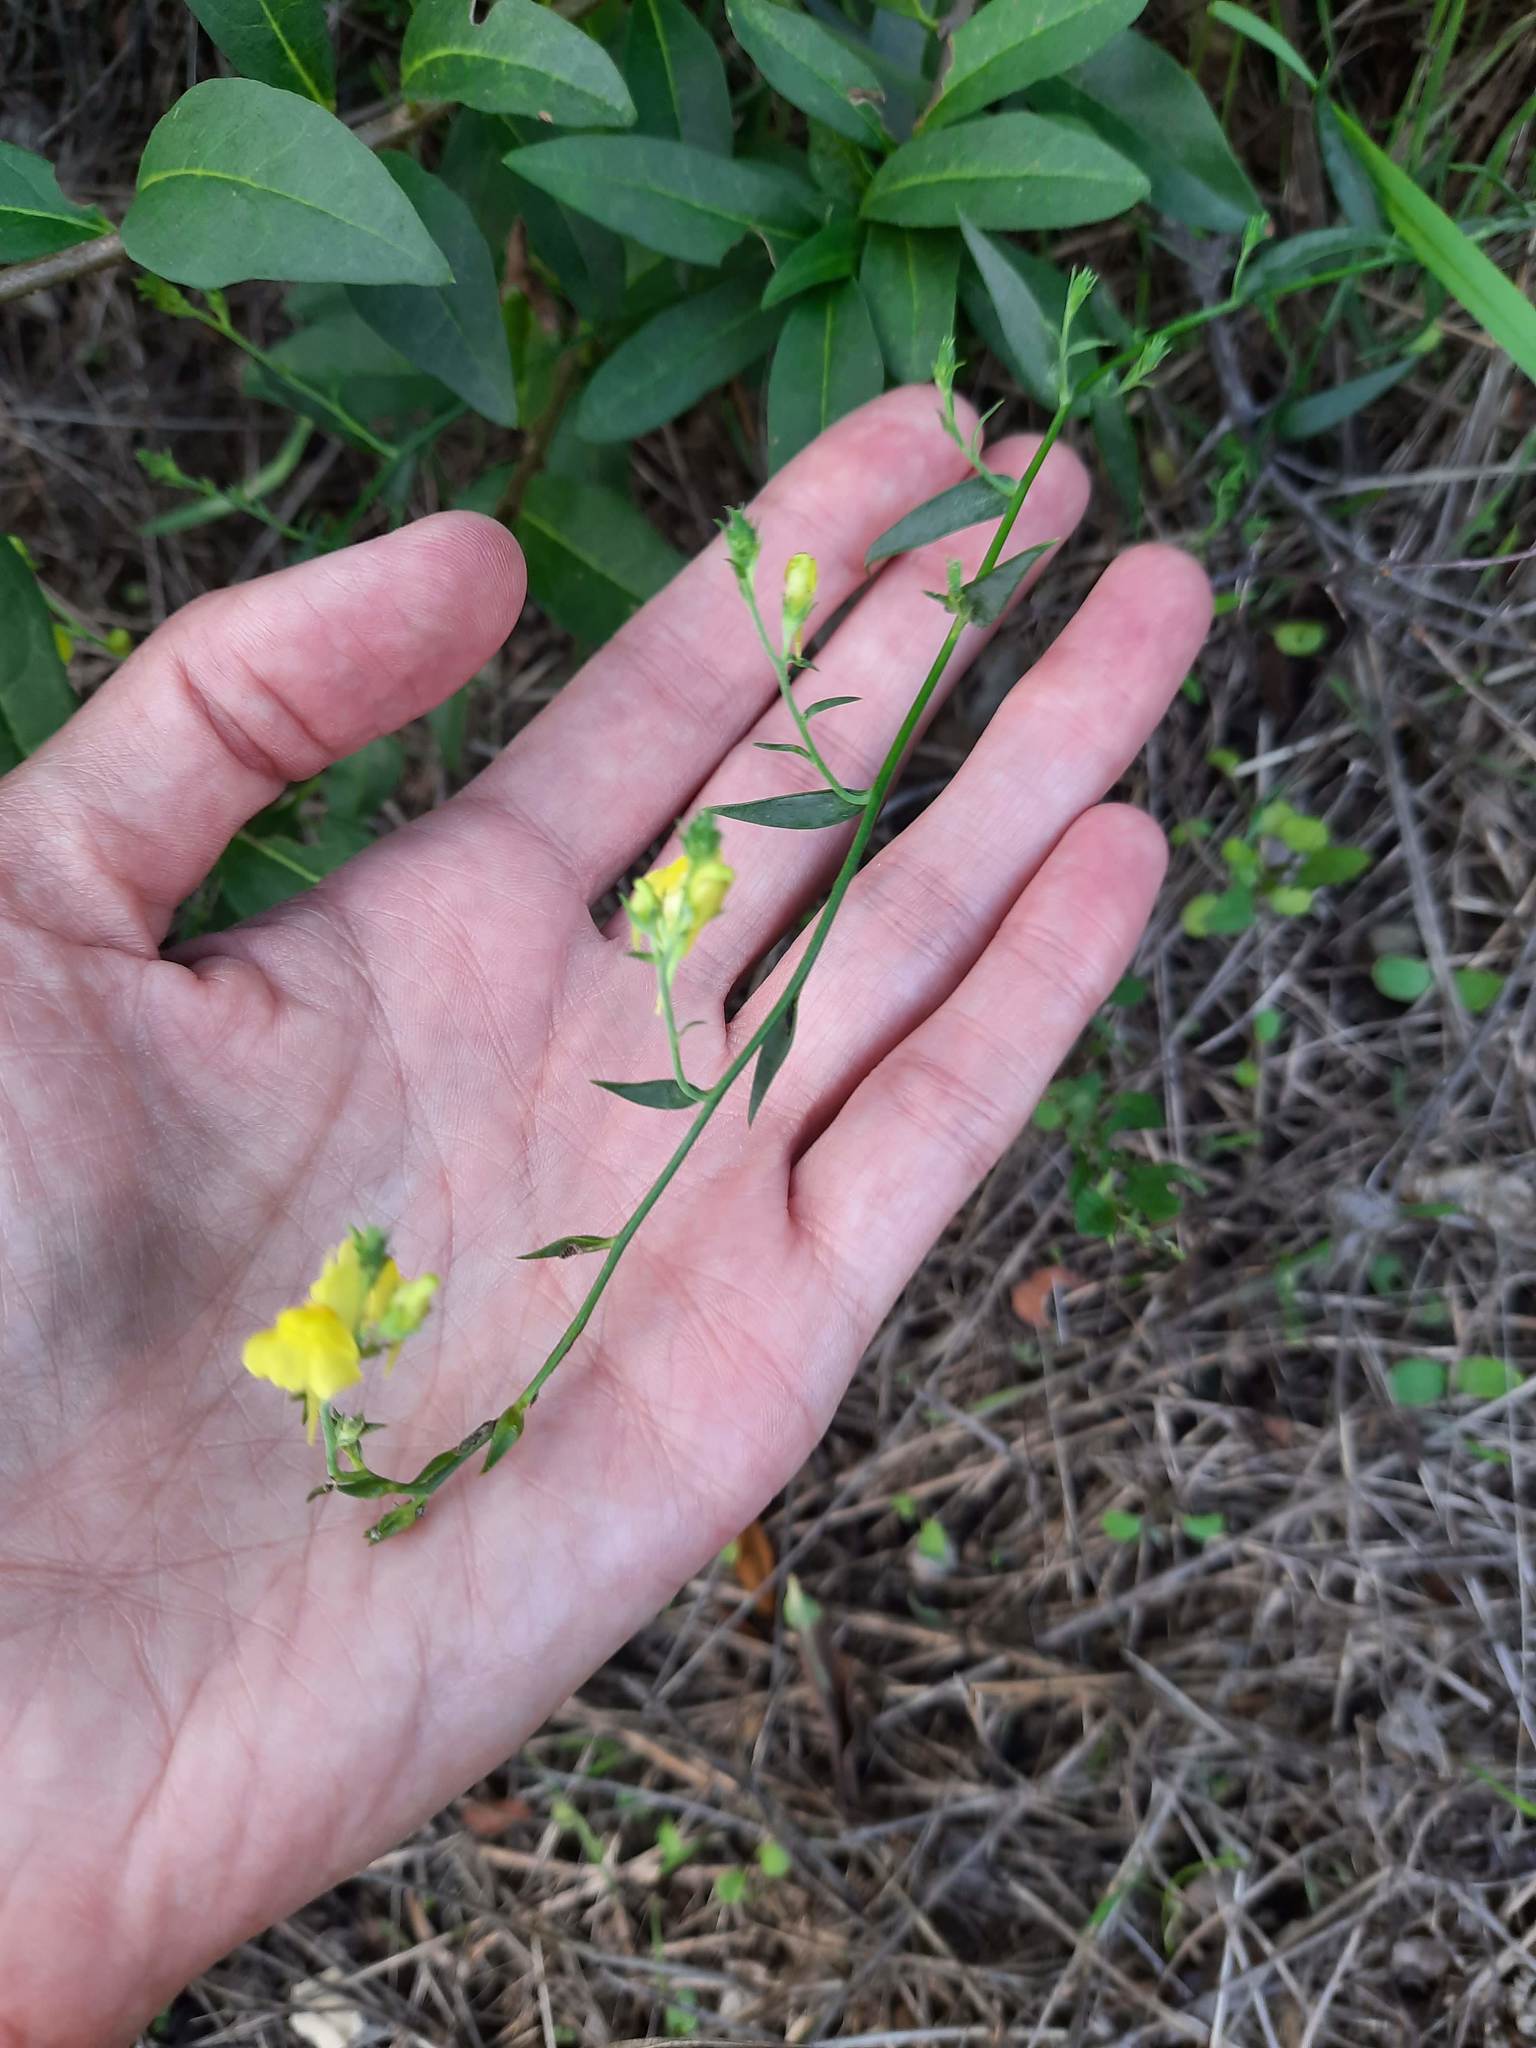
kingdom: Plantae
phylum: Tracheophyta
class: Magnoliopsida
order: Lamiales
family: Plantaginaceae
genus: Linaria
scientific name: Linaria genistifolia
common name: Broomleaf toadflax
